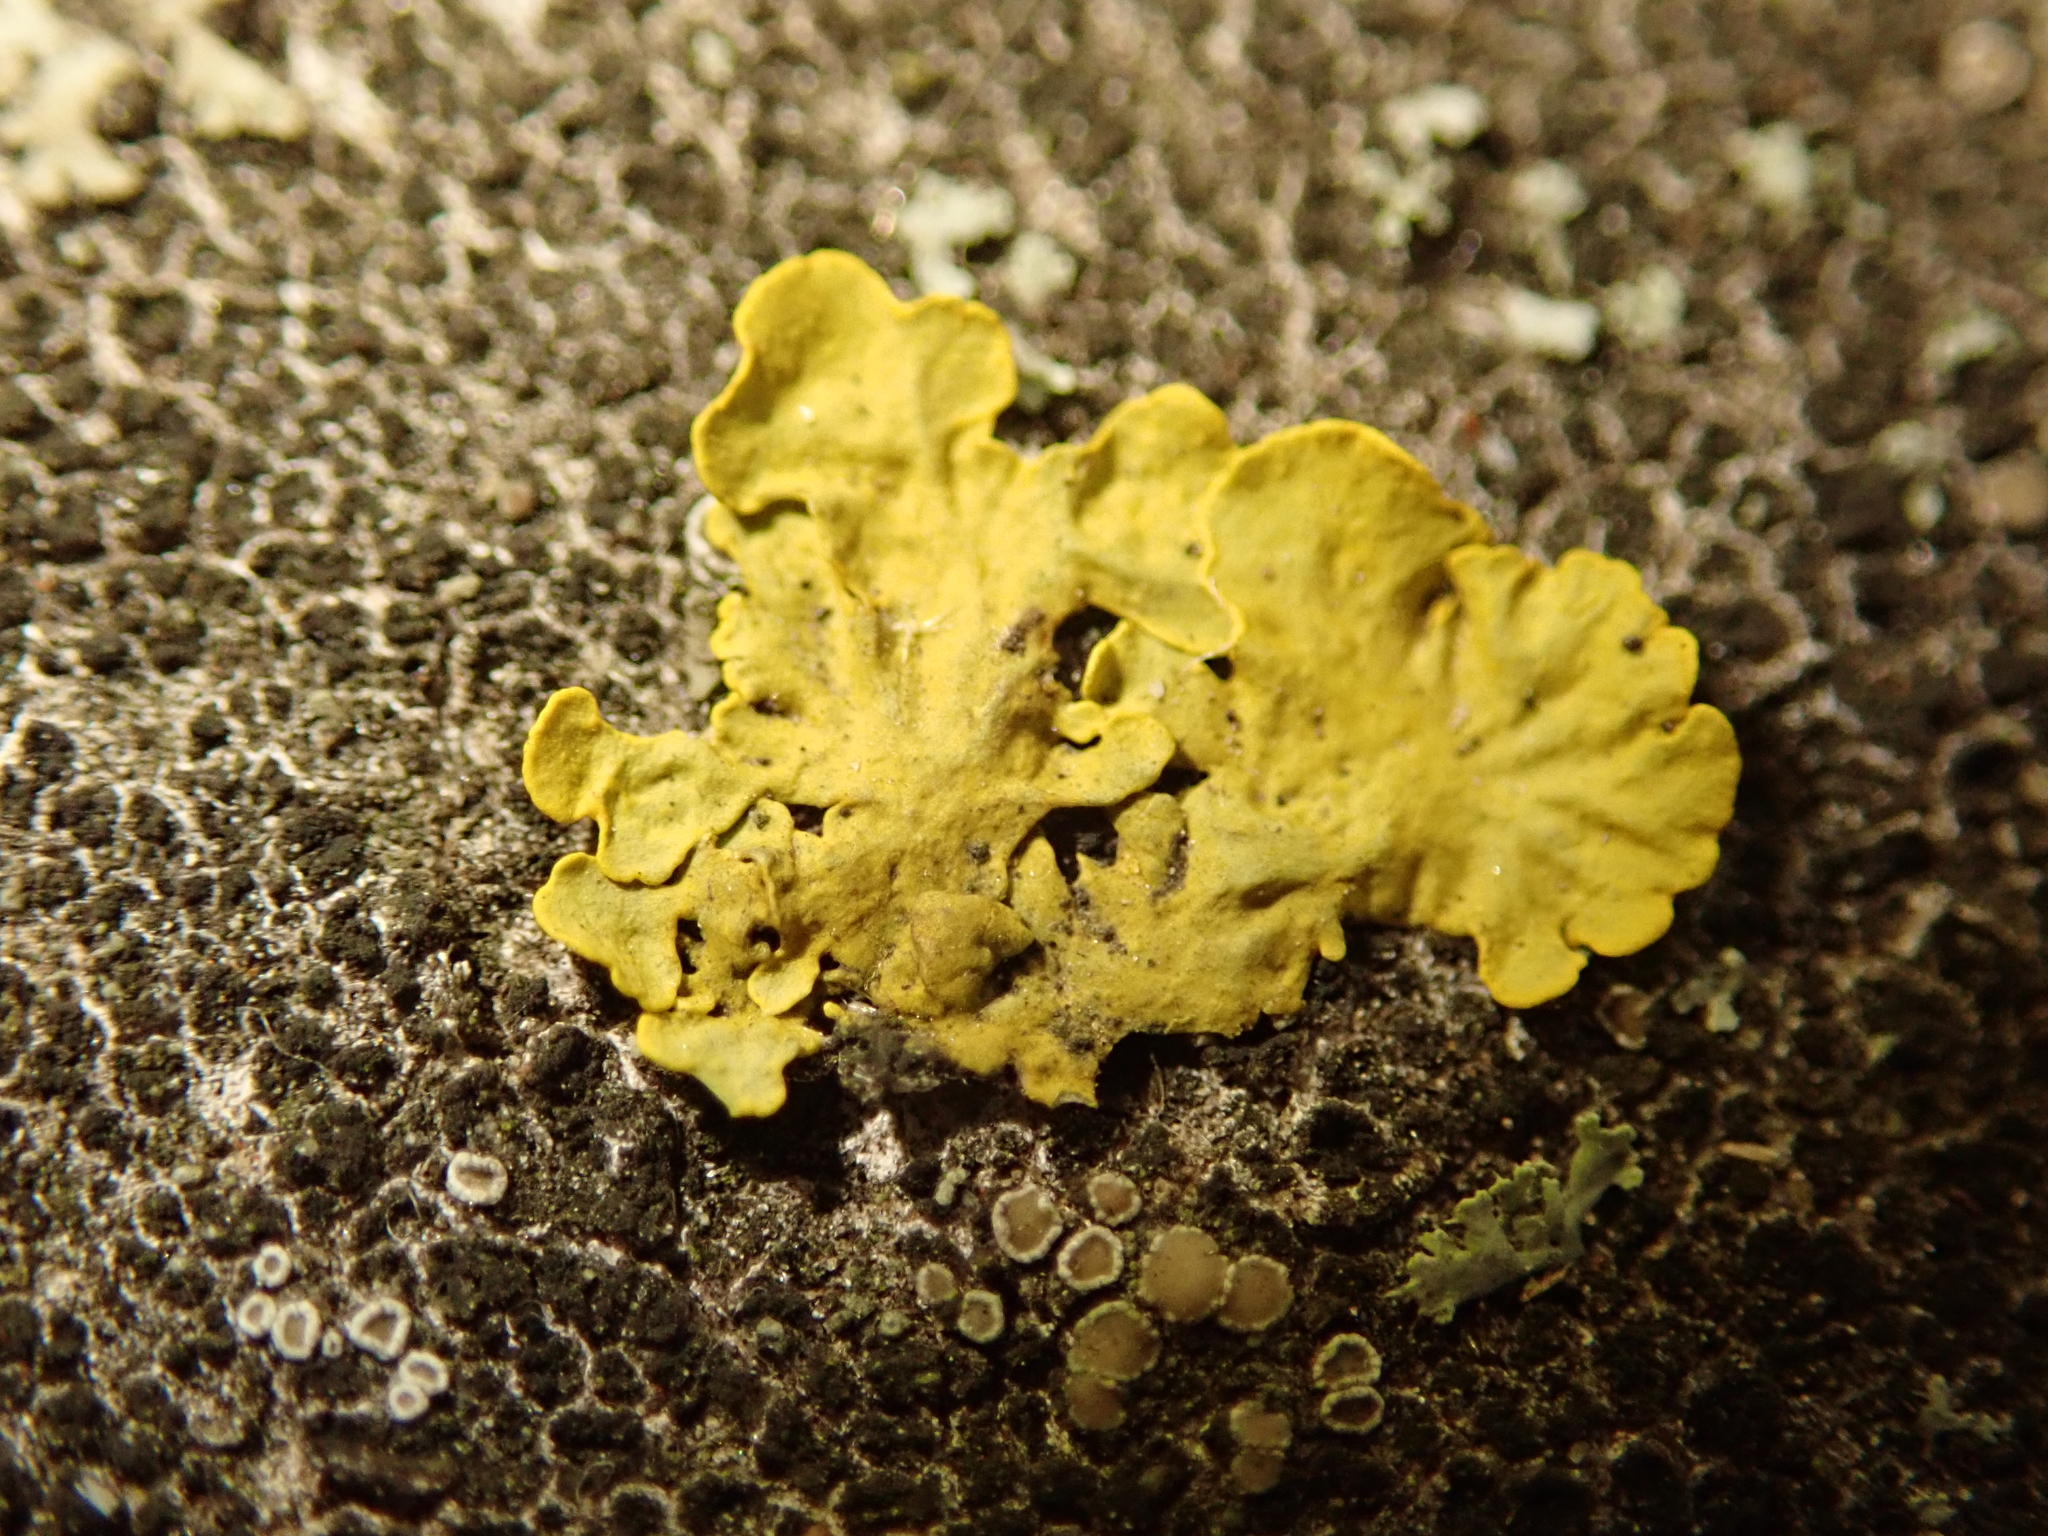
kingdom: Fungi
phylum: Ascomycota
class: Lecanoromycetes
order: Teloschistales
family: Teloschistaceae
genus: Xanthoria
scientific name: Xanthoria parietina
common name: Common orange lichen
